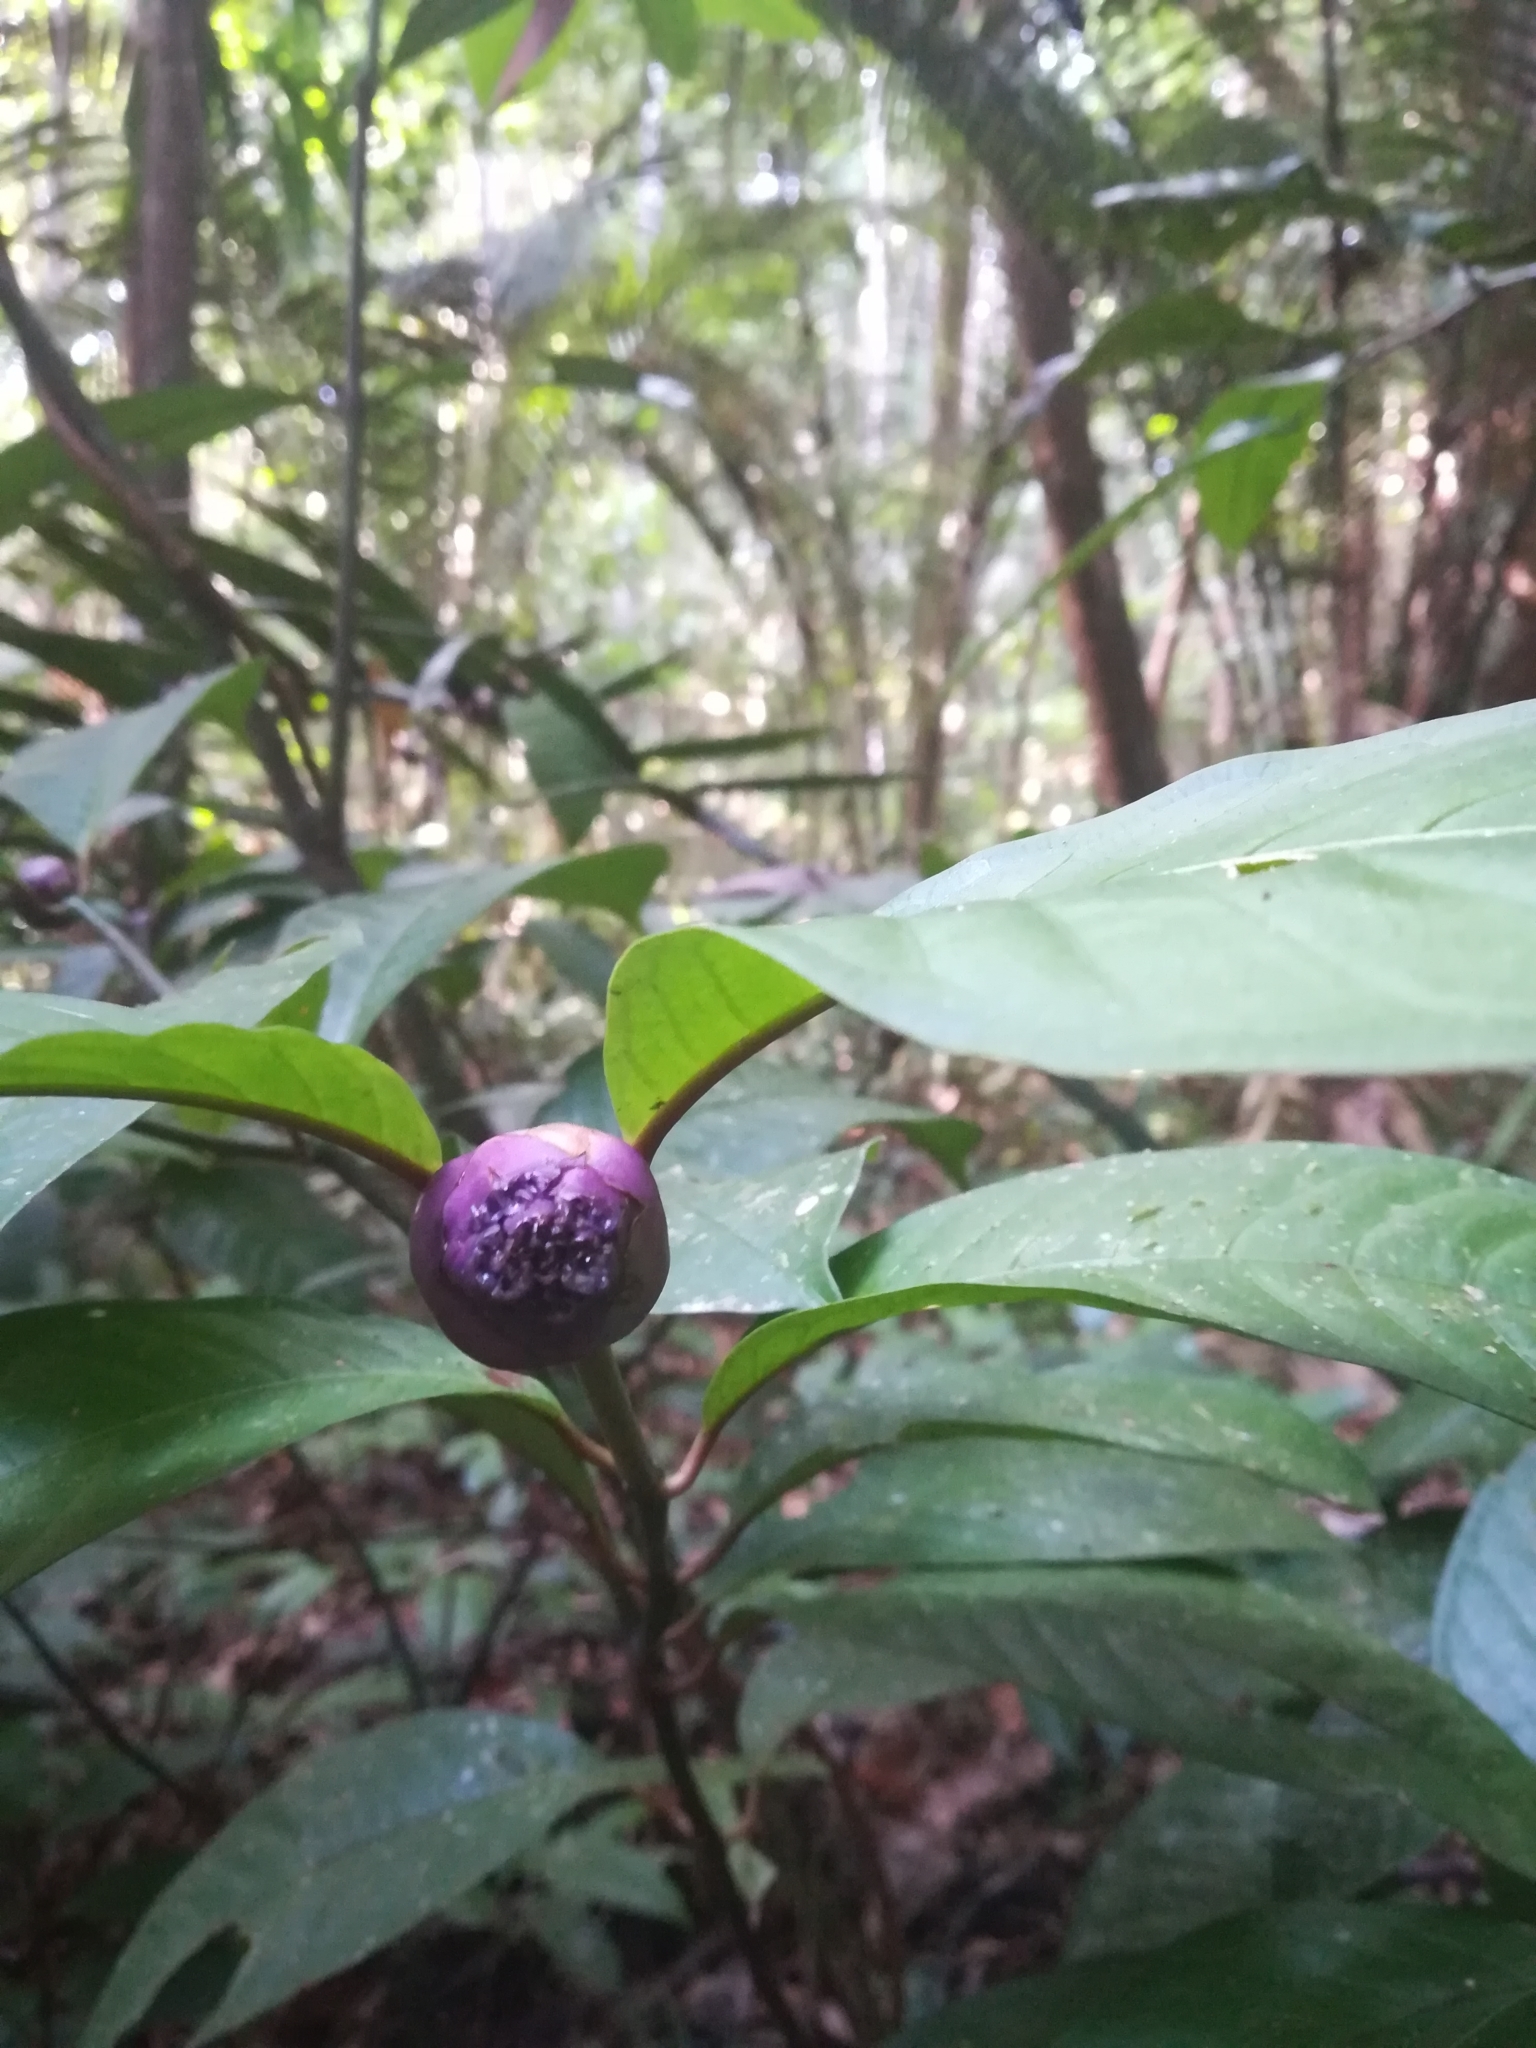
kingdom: Plantae
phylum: Tracheophyta
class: Magnoliopsida
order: Gentianales
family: Rubiaceae
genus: Palicourea
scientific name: Palicourea apoda
